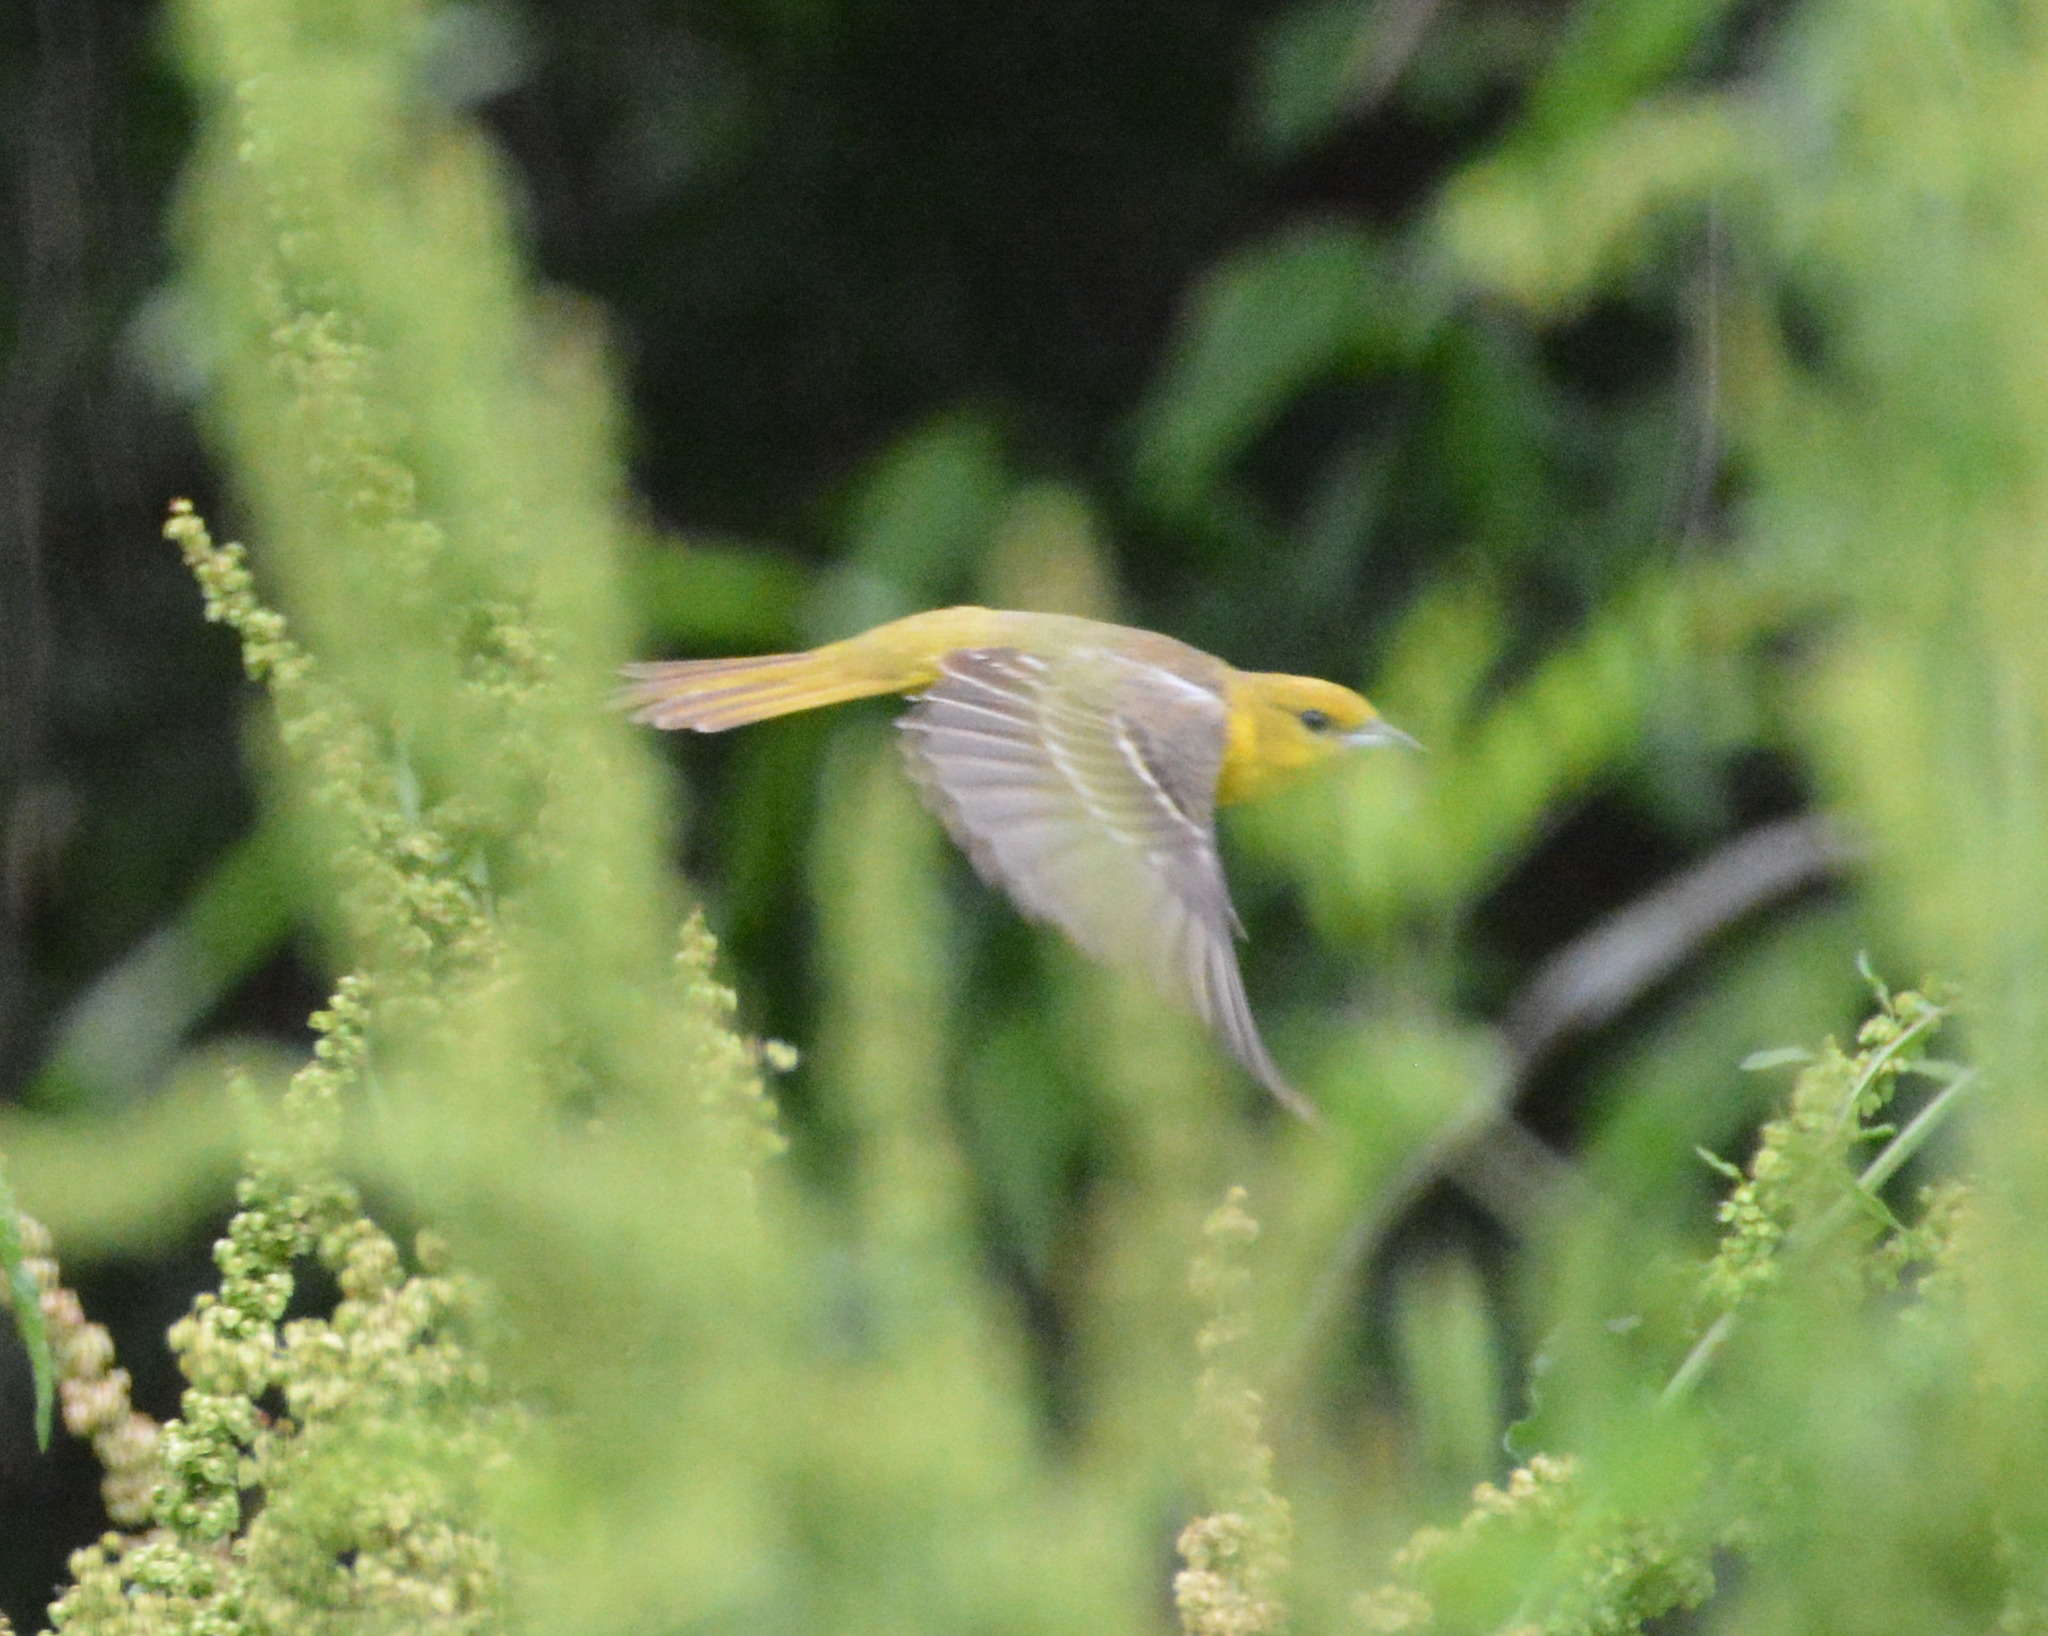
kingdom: Animalia
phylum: Chordata
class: Aves
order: Passeriformes
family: Icteridae
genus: Icterus
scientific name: Icterus spurius
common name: Orchard oriole
